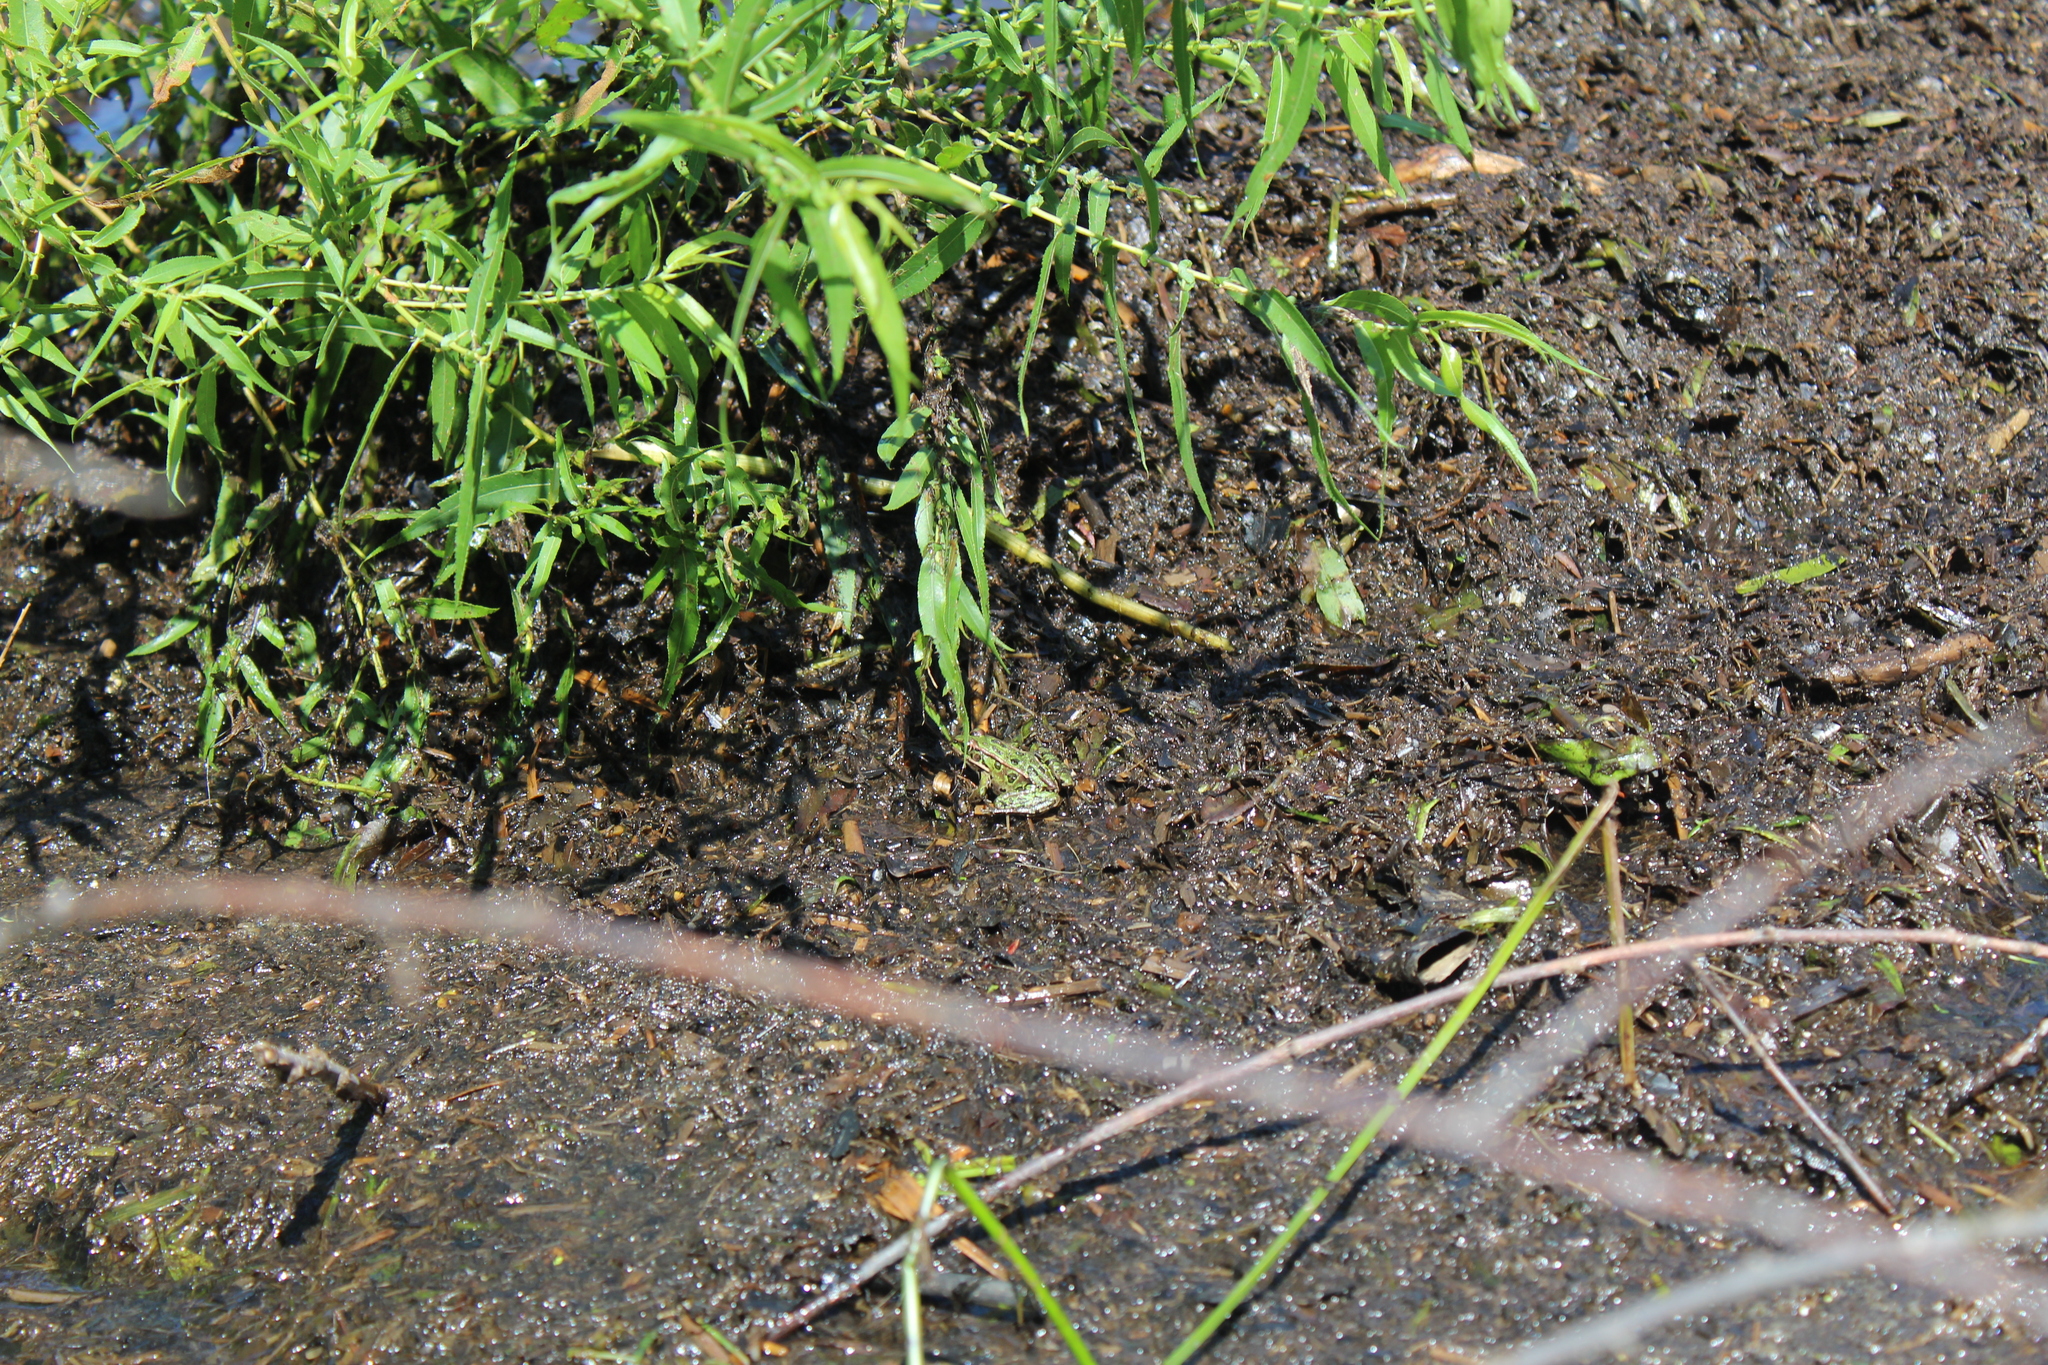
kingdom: Animalia
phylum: Chordata
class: Amphibia
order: Anura
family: Ranidae
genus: Lithobates
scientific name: Lithobates pipiens
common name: Northern leopard frog
